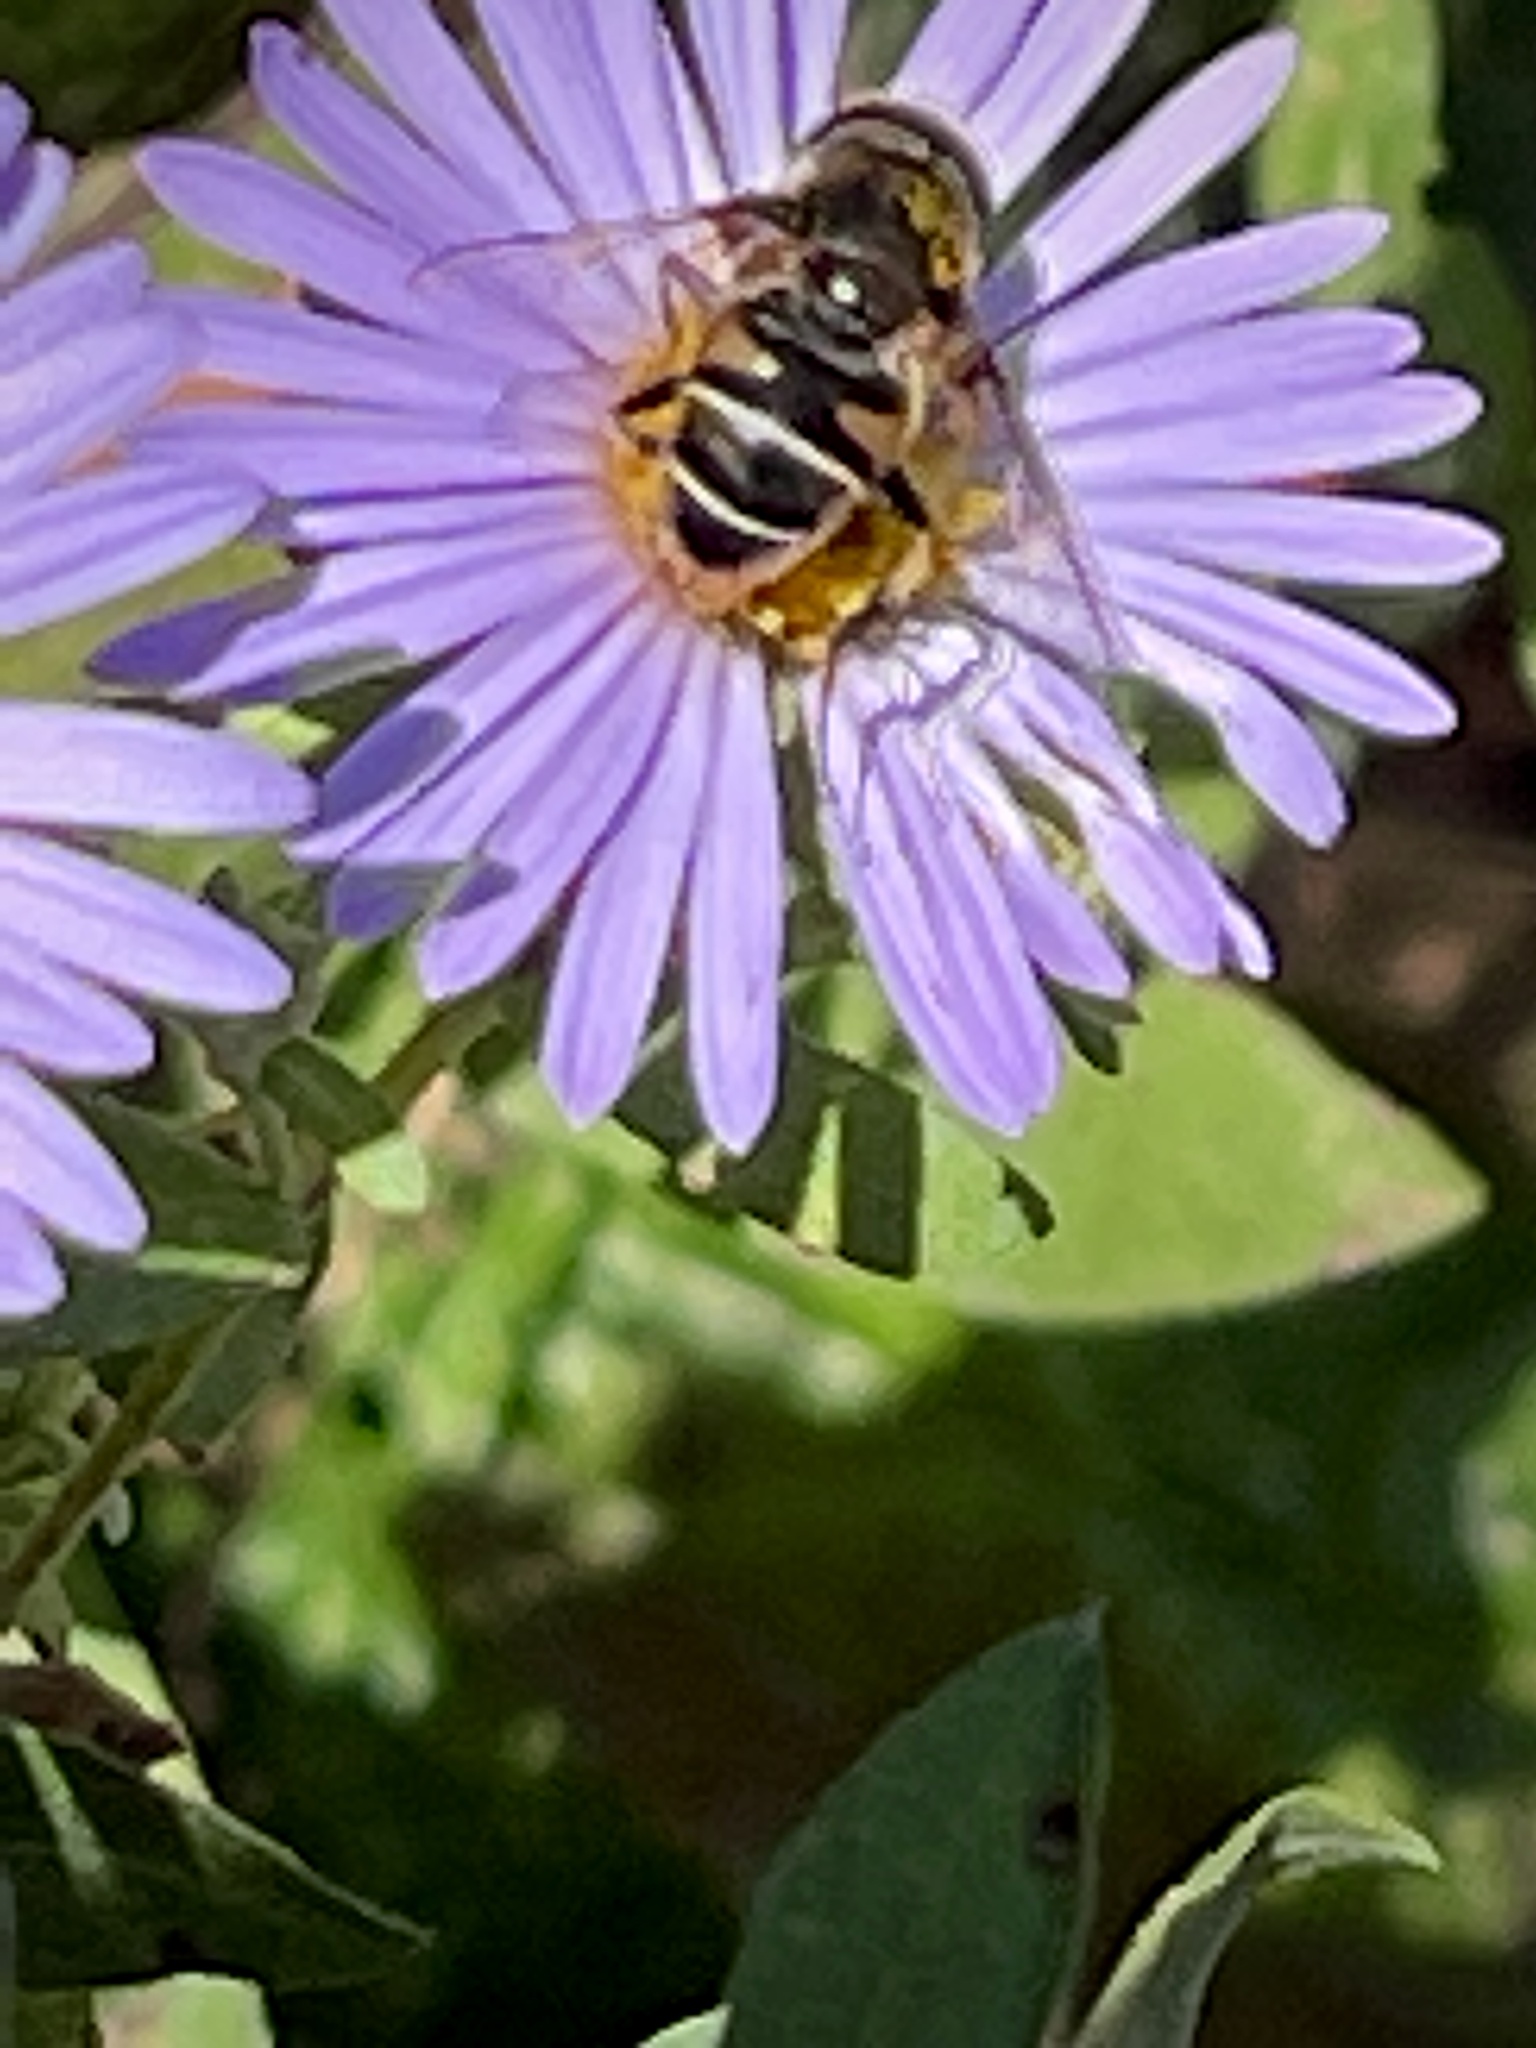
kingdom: Animalia
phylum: Arthropoda
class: Insecta
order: Diptera
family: Syrphidae
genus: Eristalis
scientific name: Eristalis dimidiata
